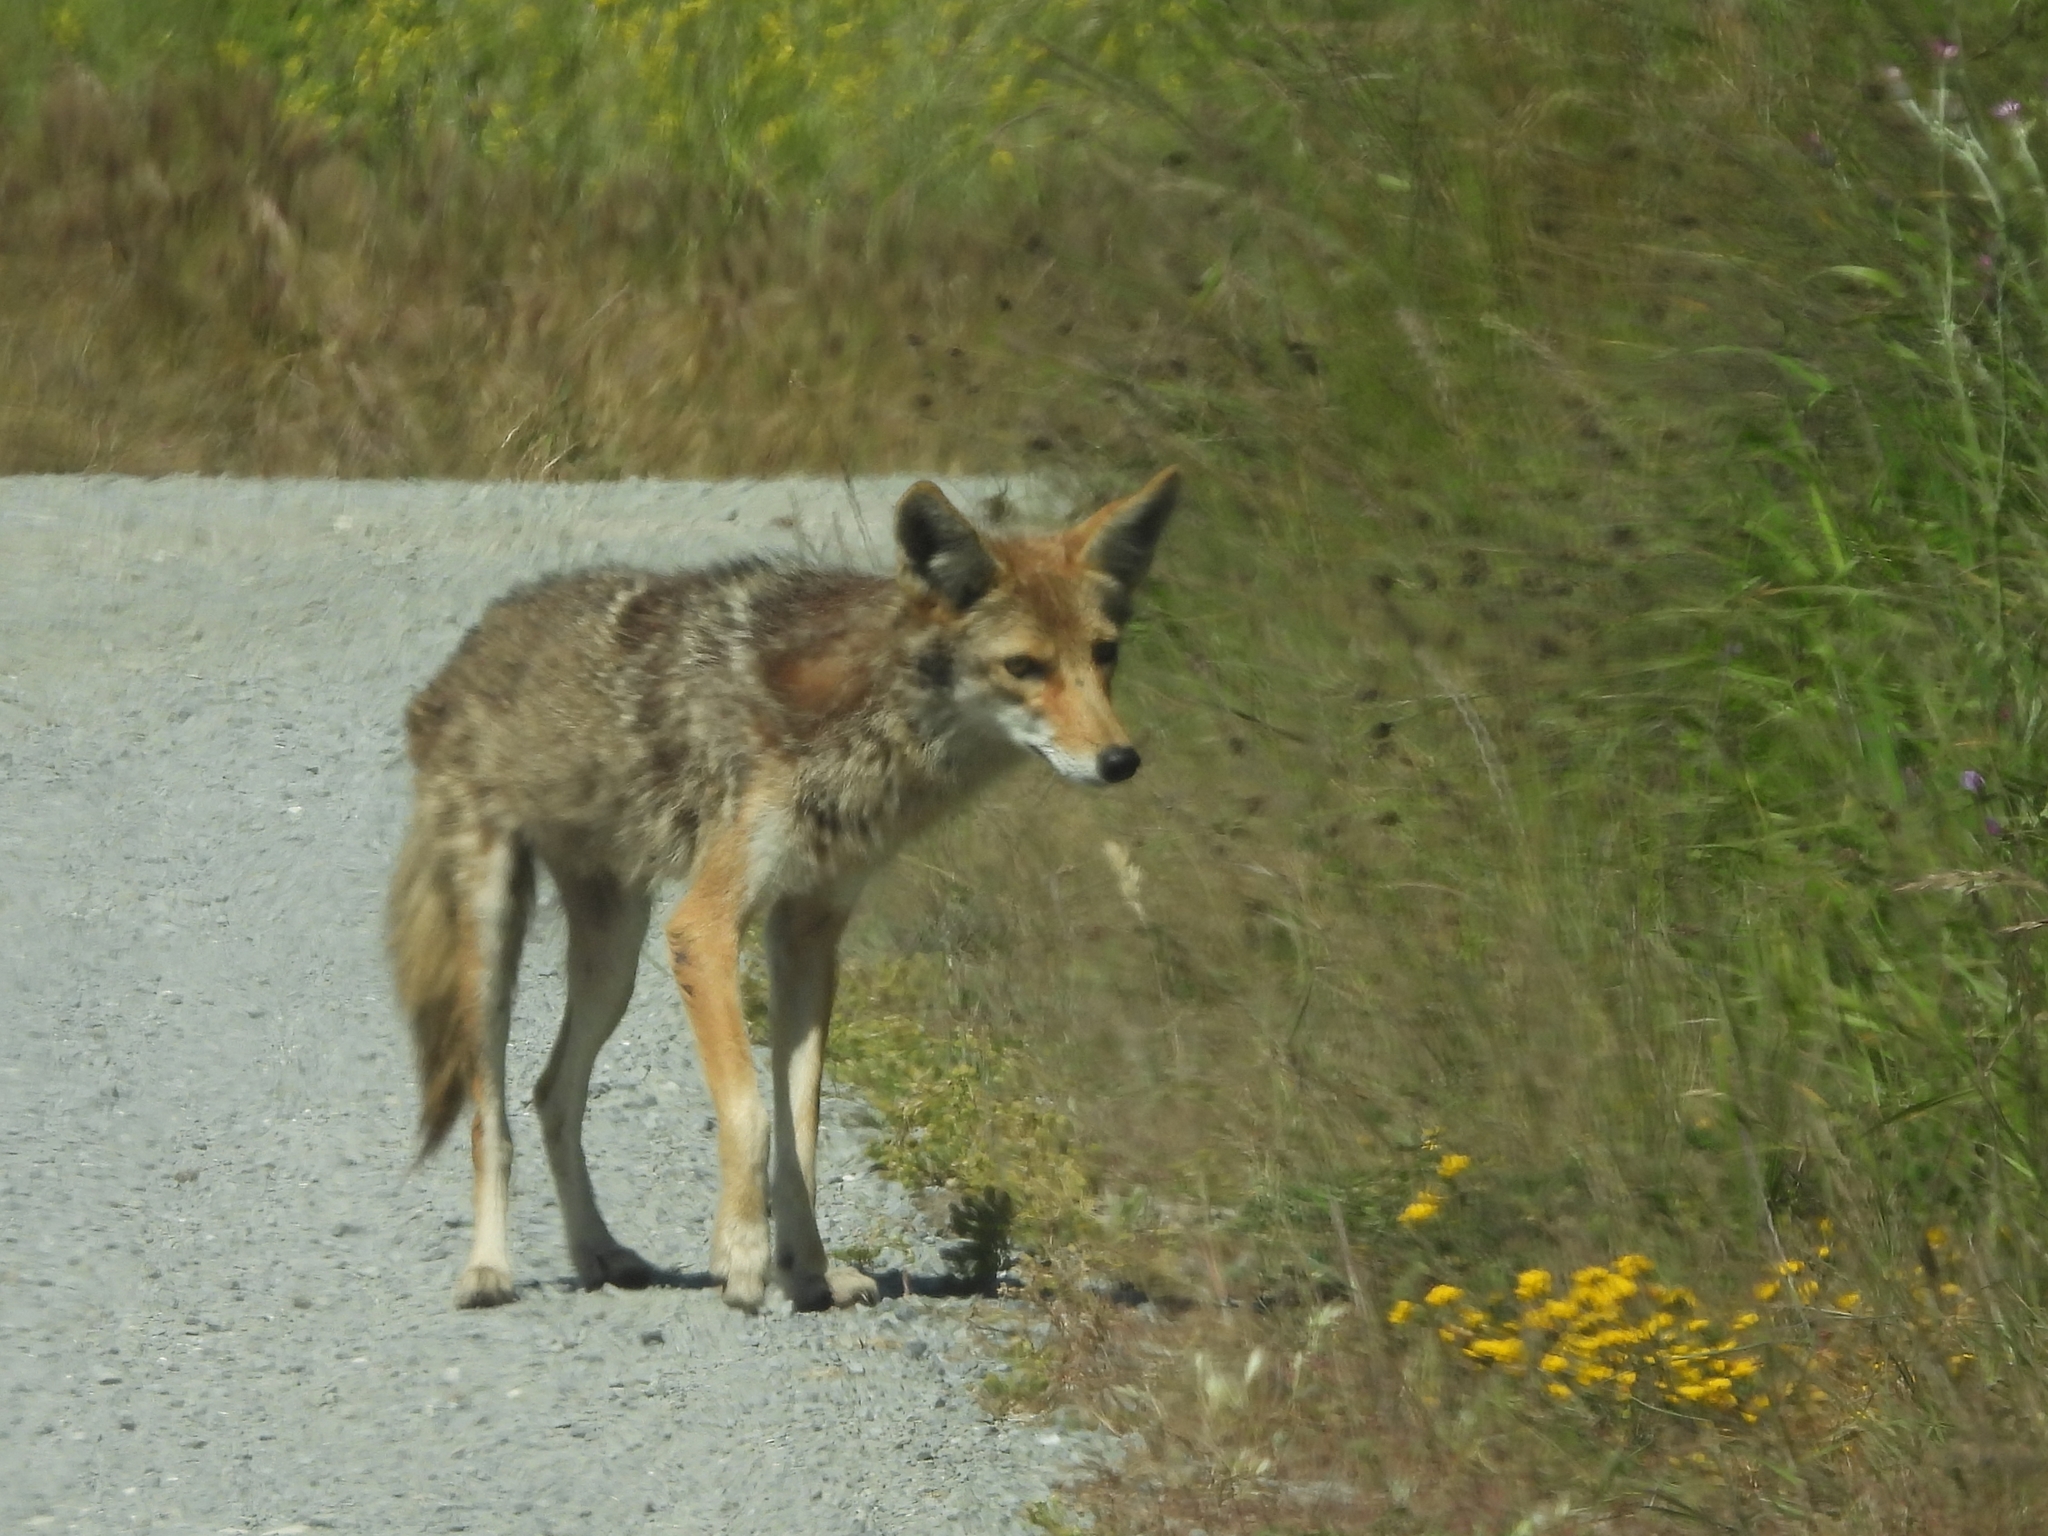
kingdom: Animalia
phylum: Chordata
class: Mammalia
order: Carnivora
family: Canidae
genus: Canis
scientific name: Canis latrans
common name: Coyote
